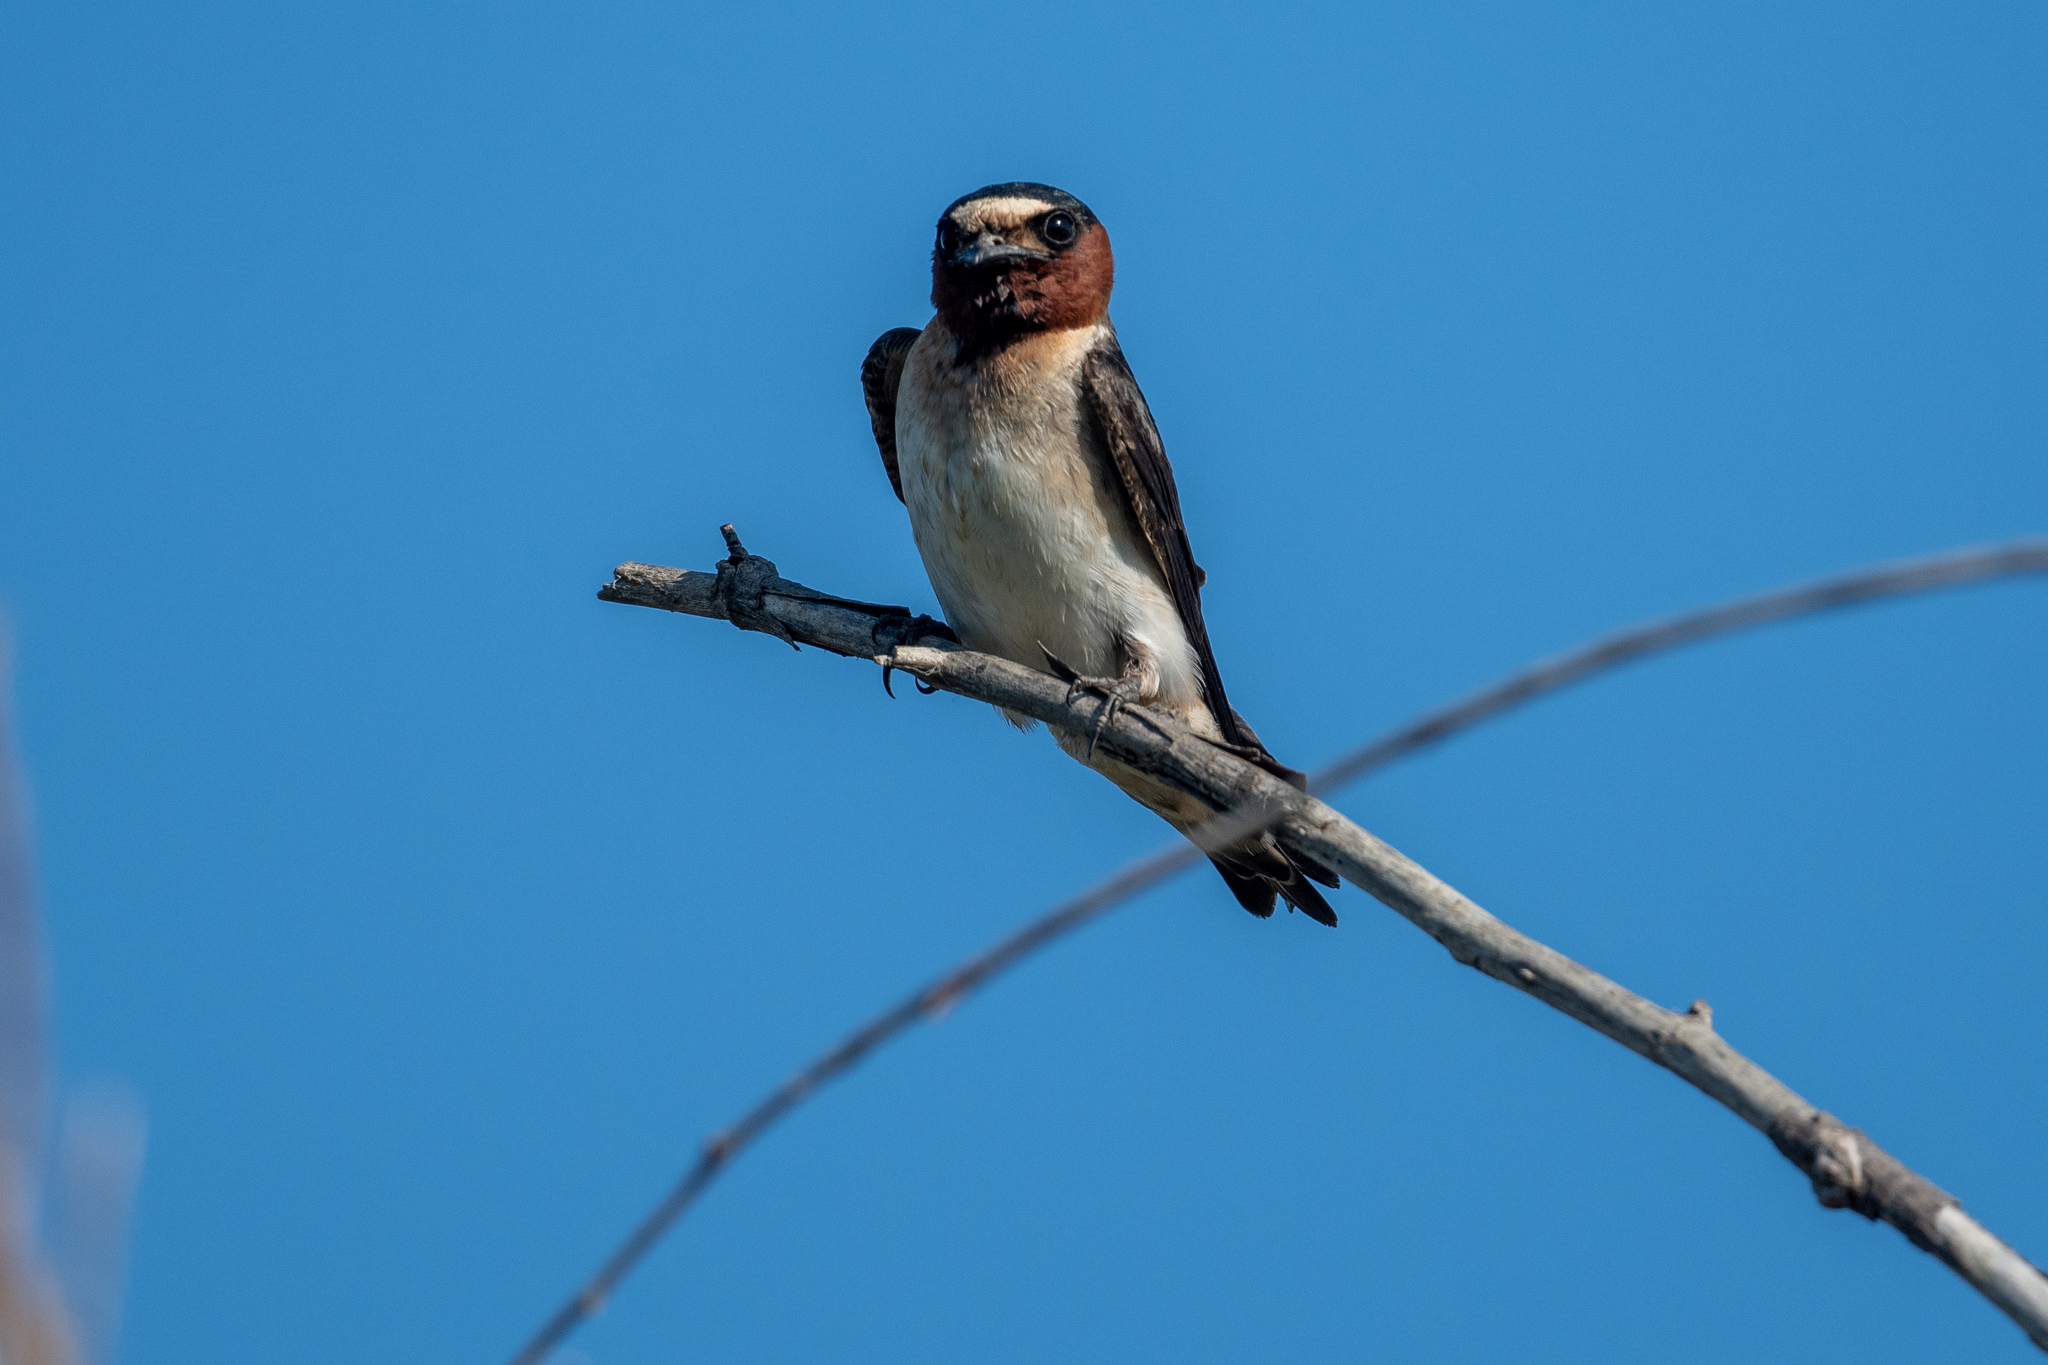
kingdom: Animalia
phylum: Chordata
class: Aves
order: Passeriformes
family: Hirundinidae
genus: Petrochelidon
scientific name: Petrochelidon pyrrhonota
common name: American cliff swallow
